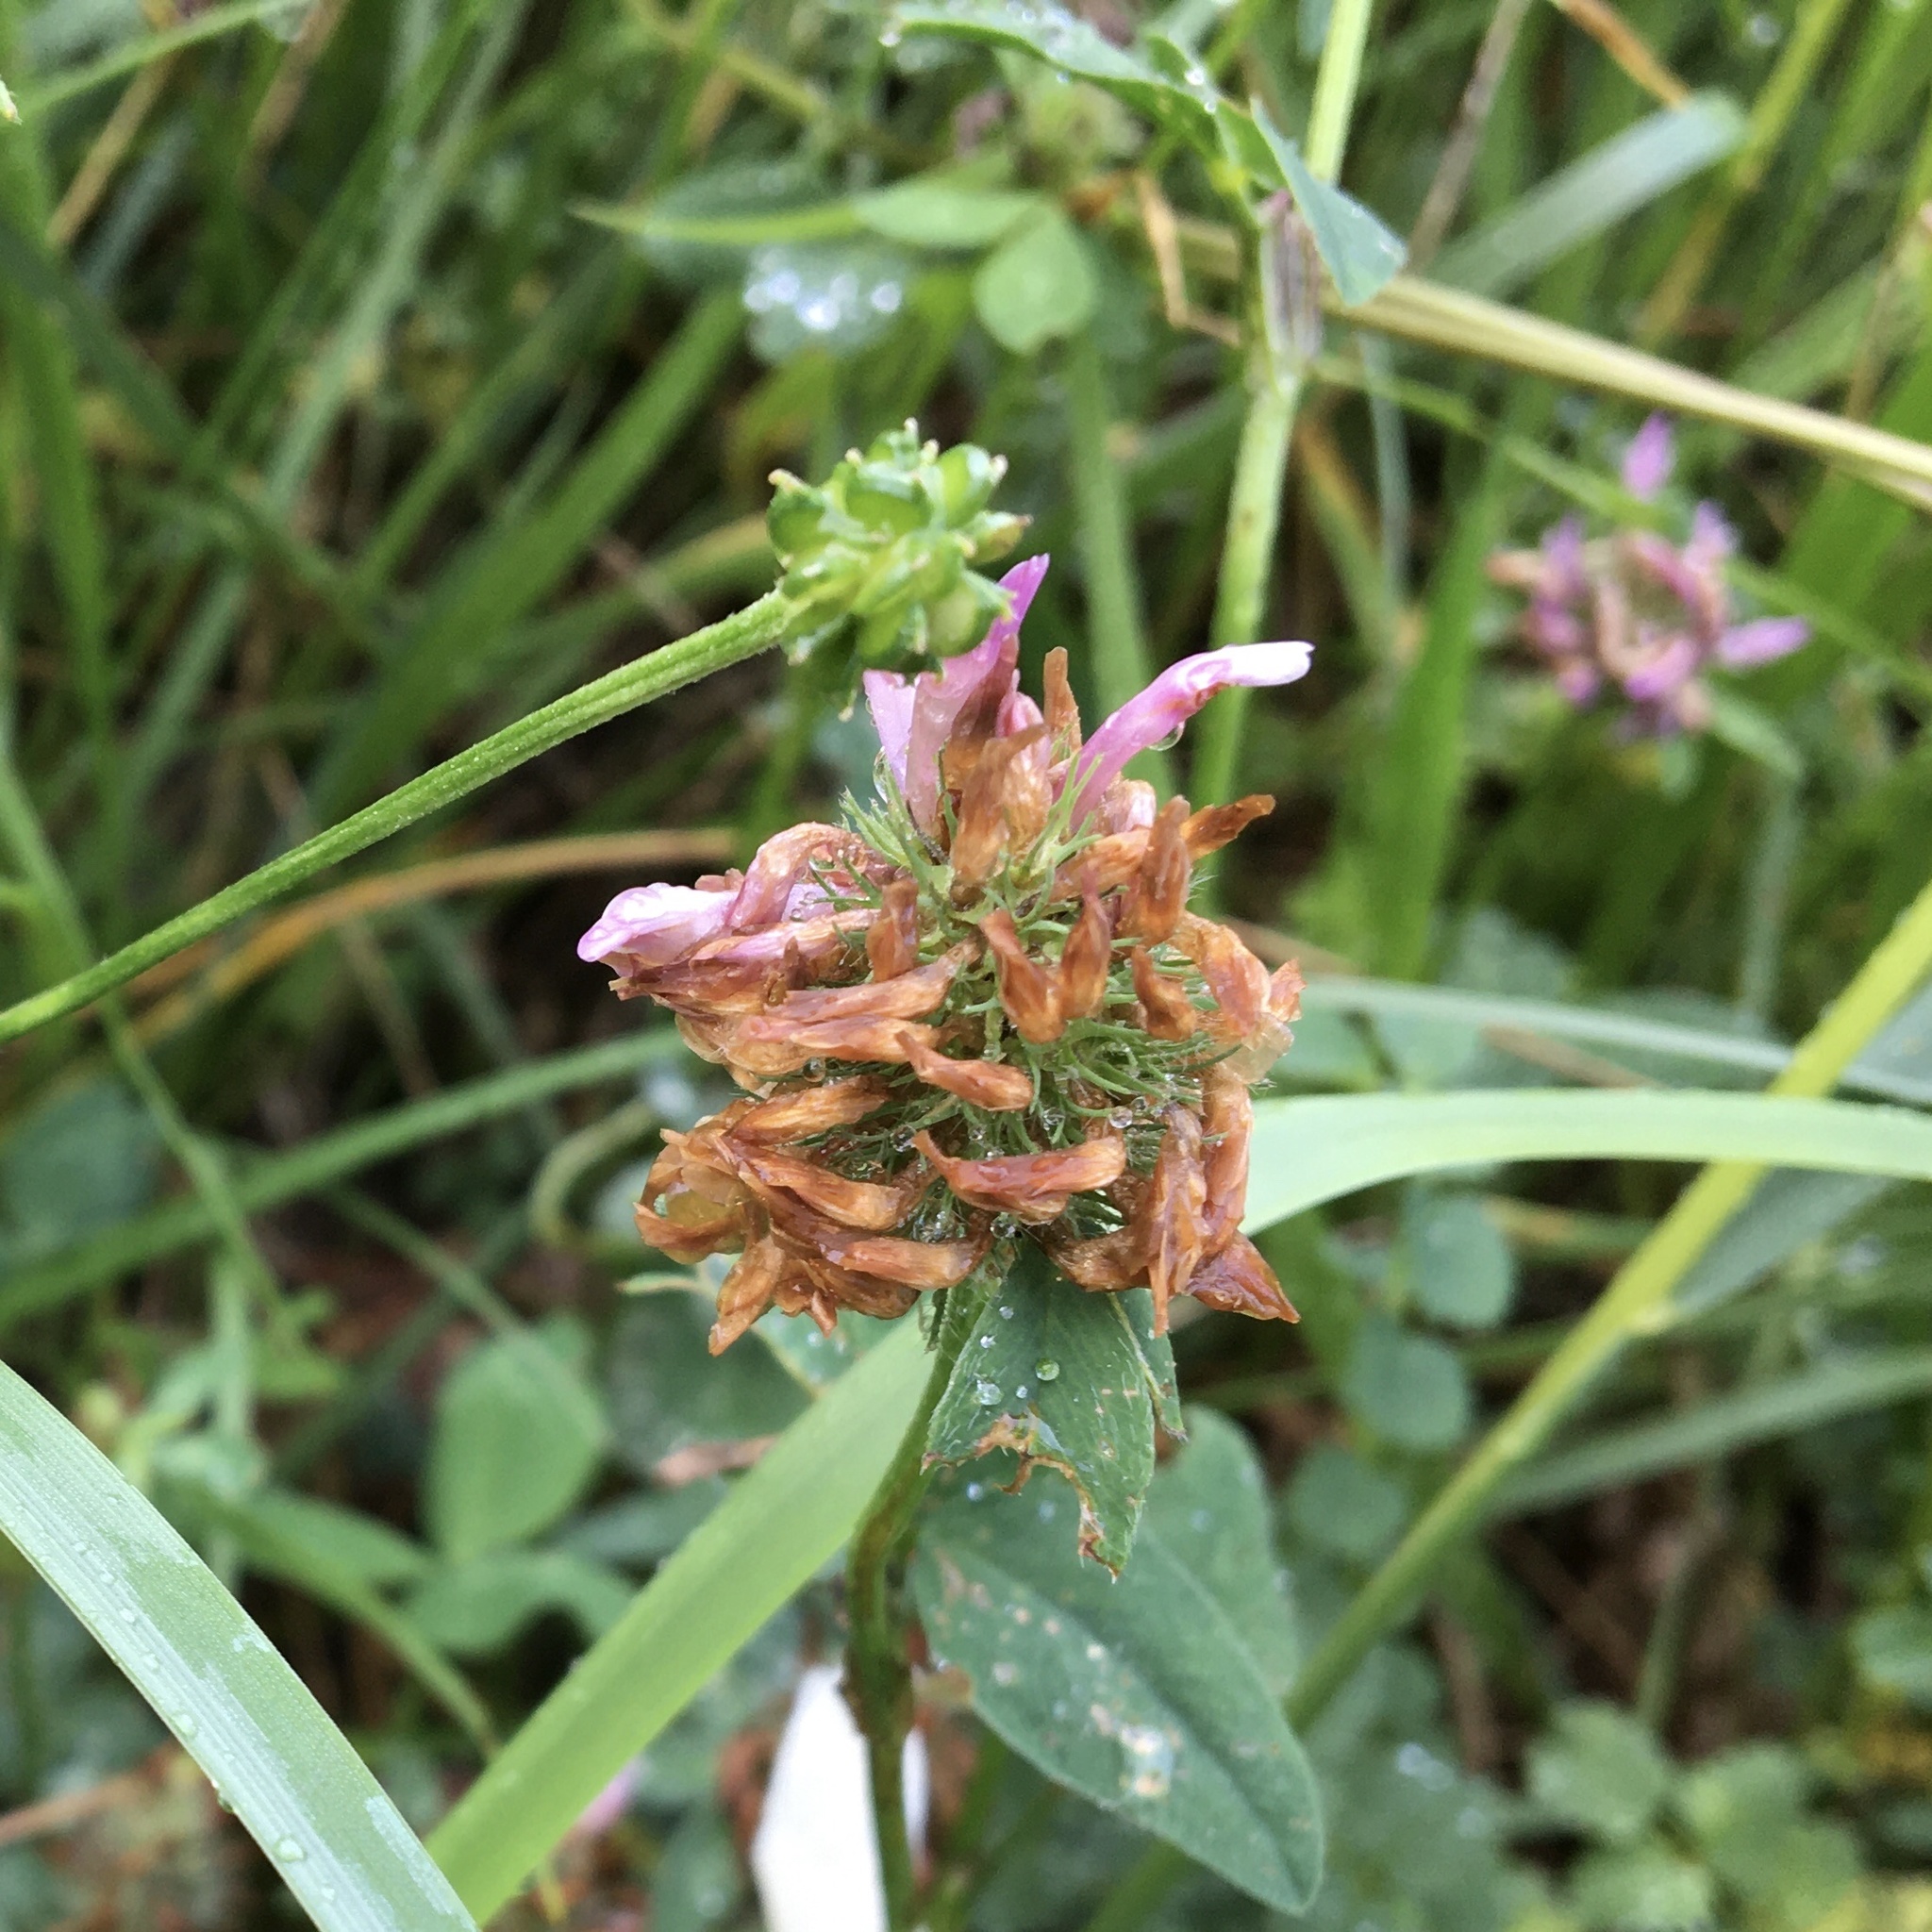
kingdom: Plantae
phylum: Tracheophyta
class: Magnoliopsida
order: Fabales
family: Fabaceae
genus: Trifolium
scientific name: Trifolium pratense
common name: Red clover
